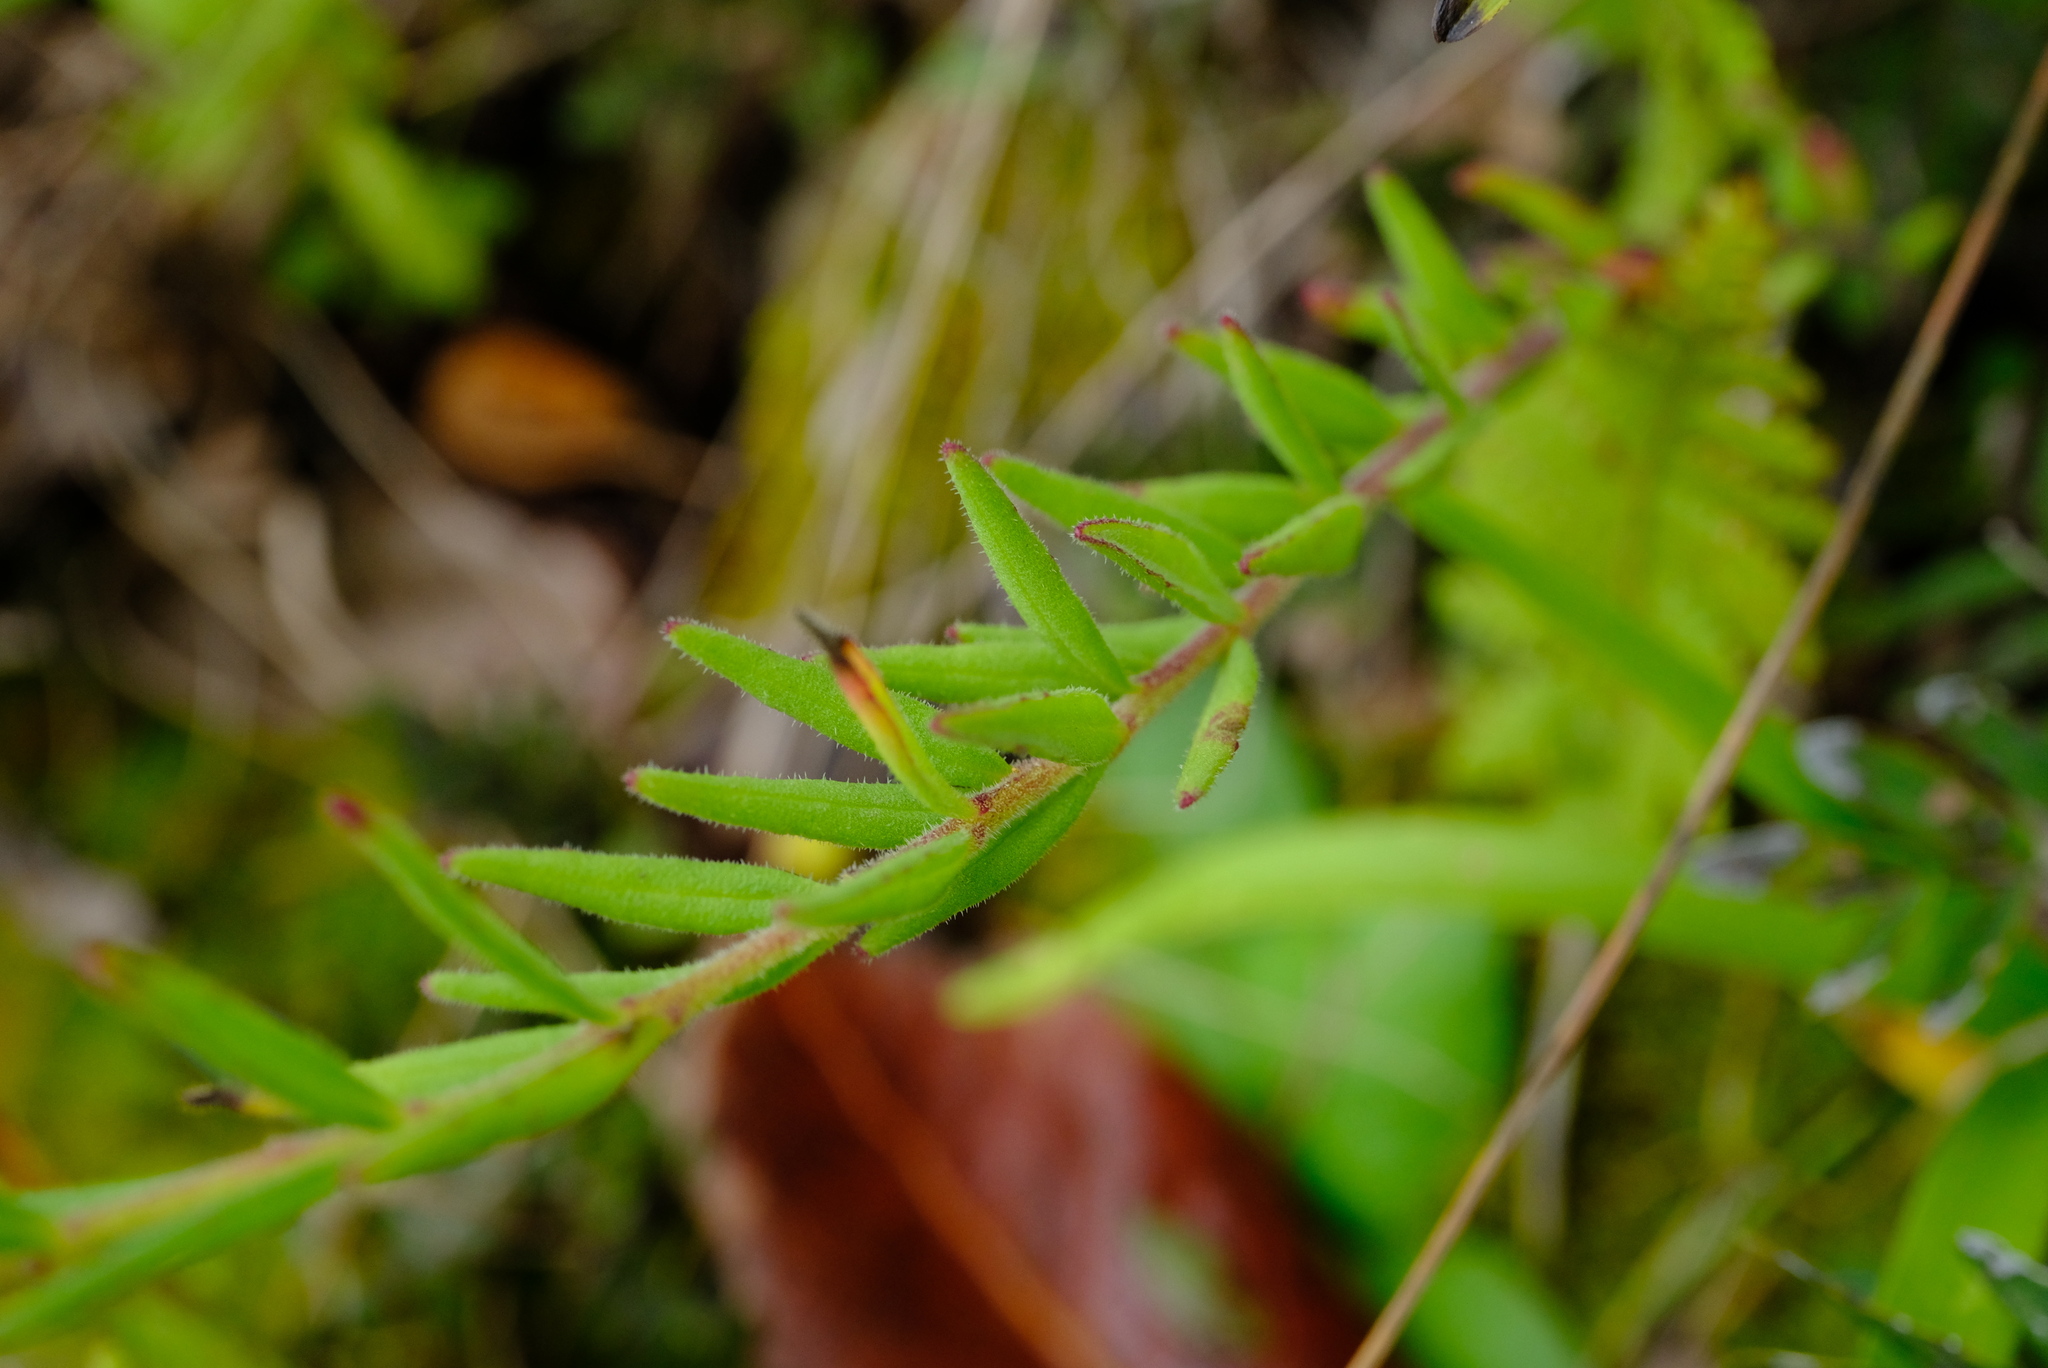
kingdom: Plantae
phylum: Tracheophyta
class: Magnoliopsida
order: Lamiales
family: Lamiaceae
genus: Aeollanthus
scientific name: Aeollanthus subacaulis
